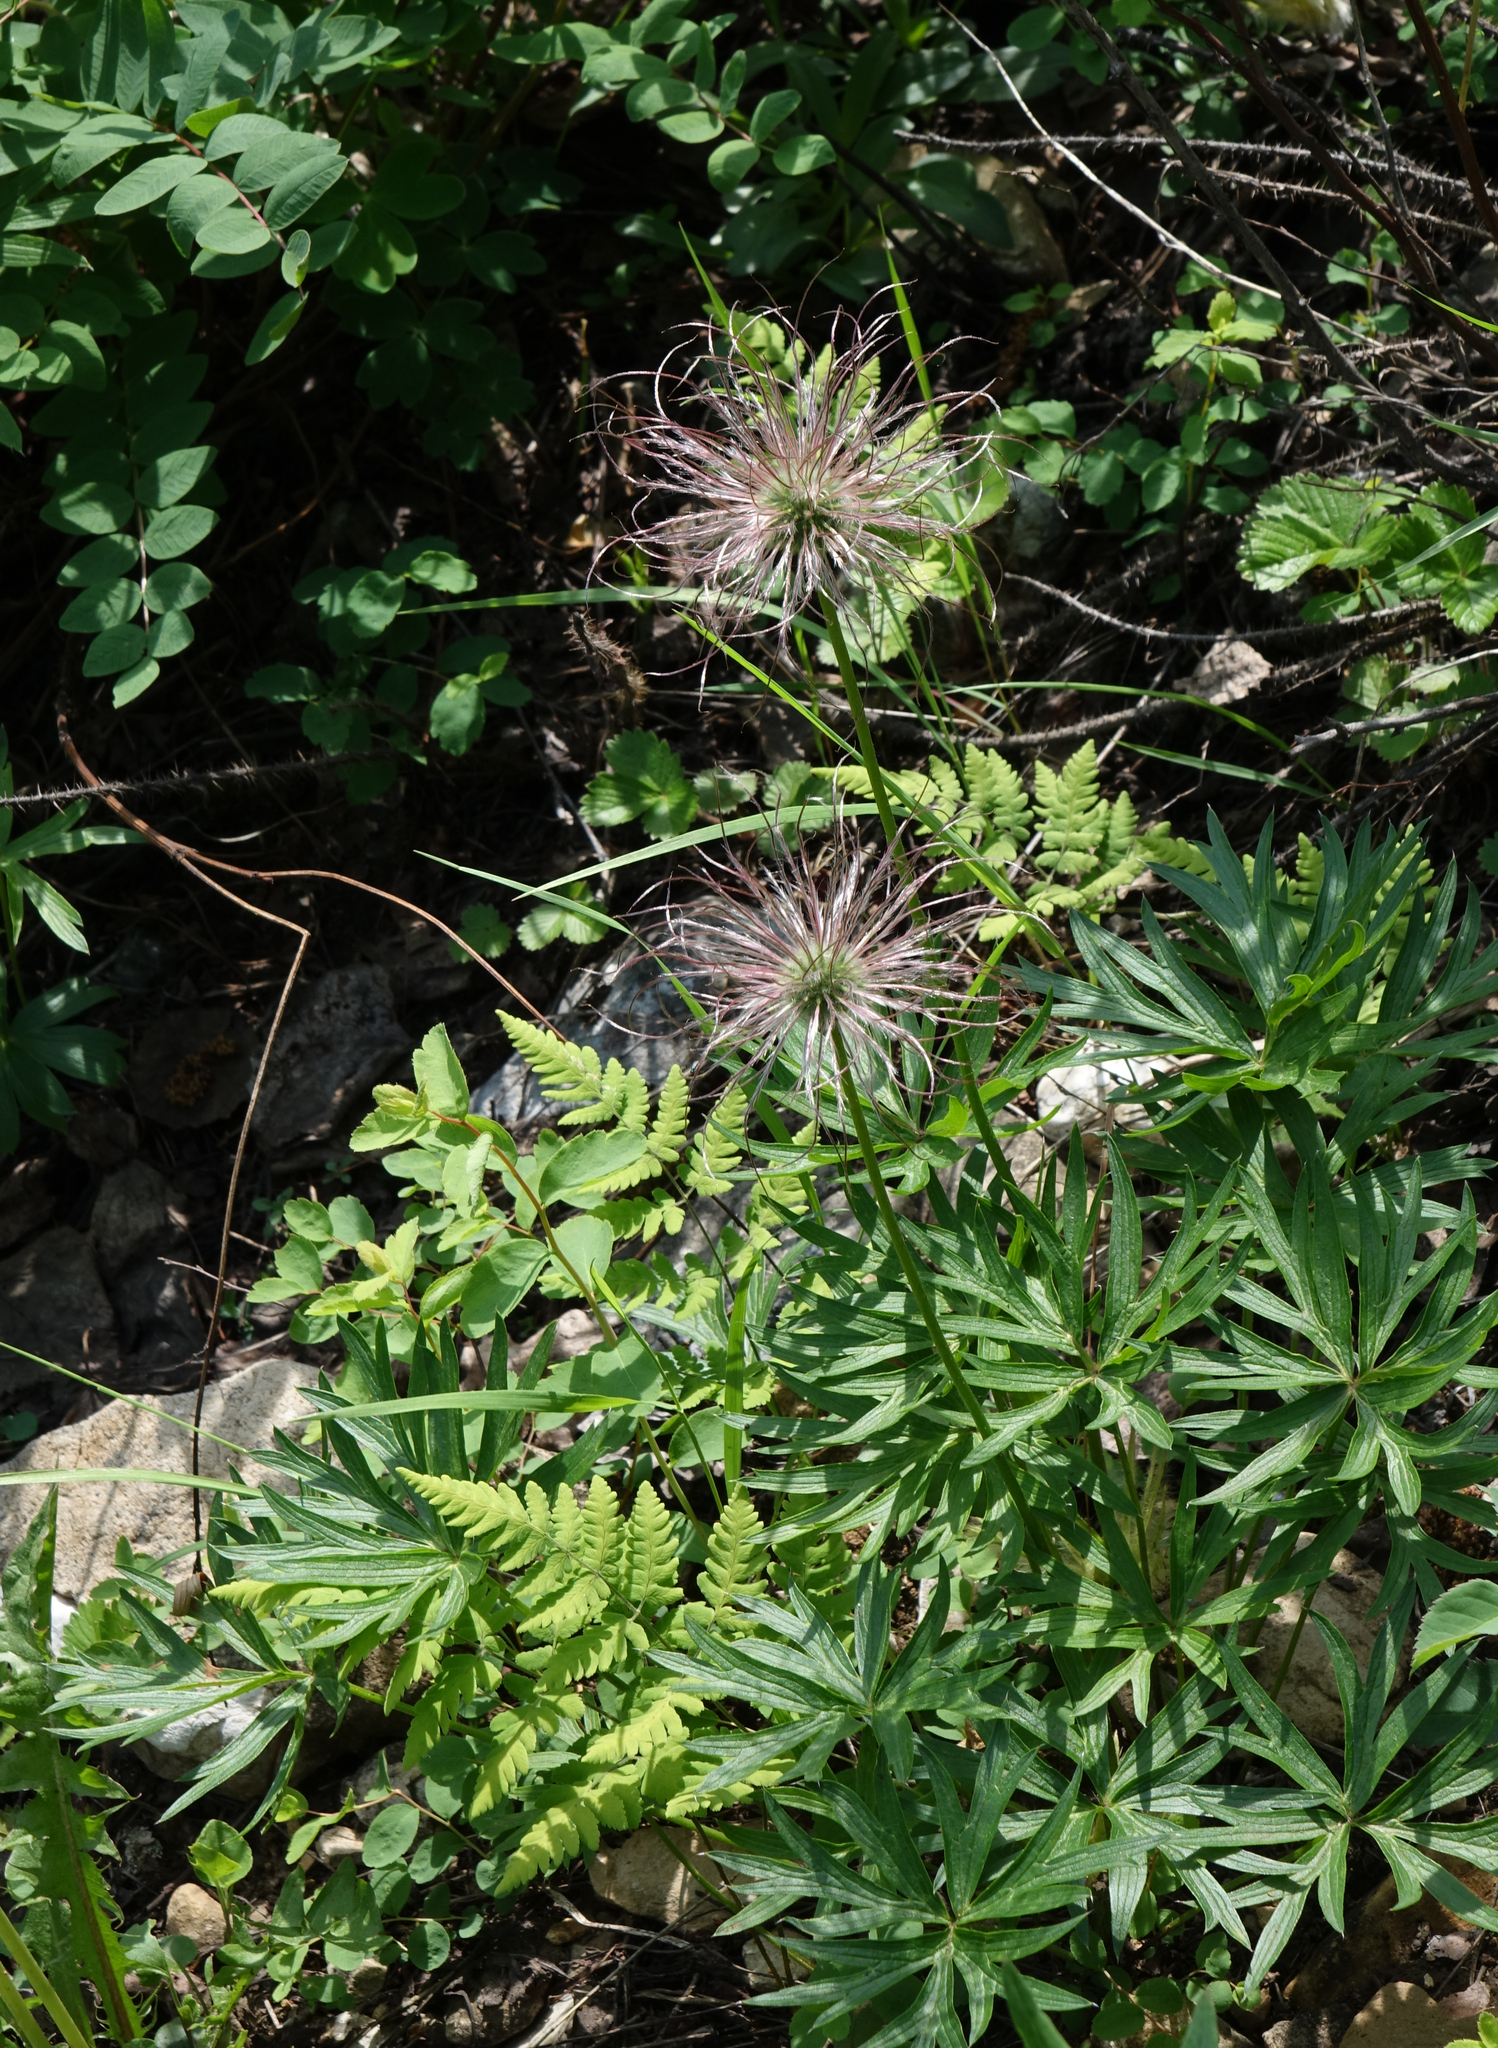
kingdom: Plantae
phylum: Tracheophyta
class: Magnoliopsida
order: Ranunculales
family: Ranunculaceae
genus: Pulsatilla
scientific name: Pulsatilla patens
